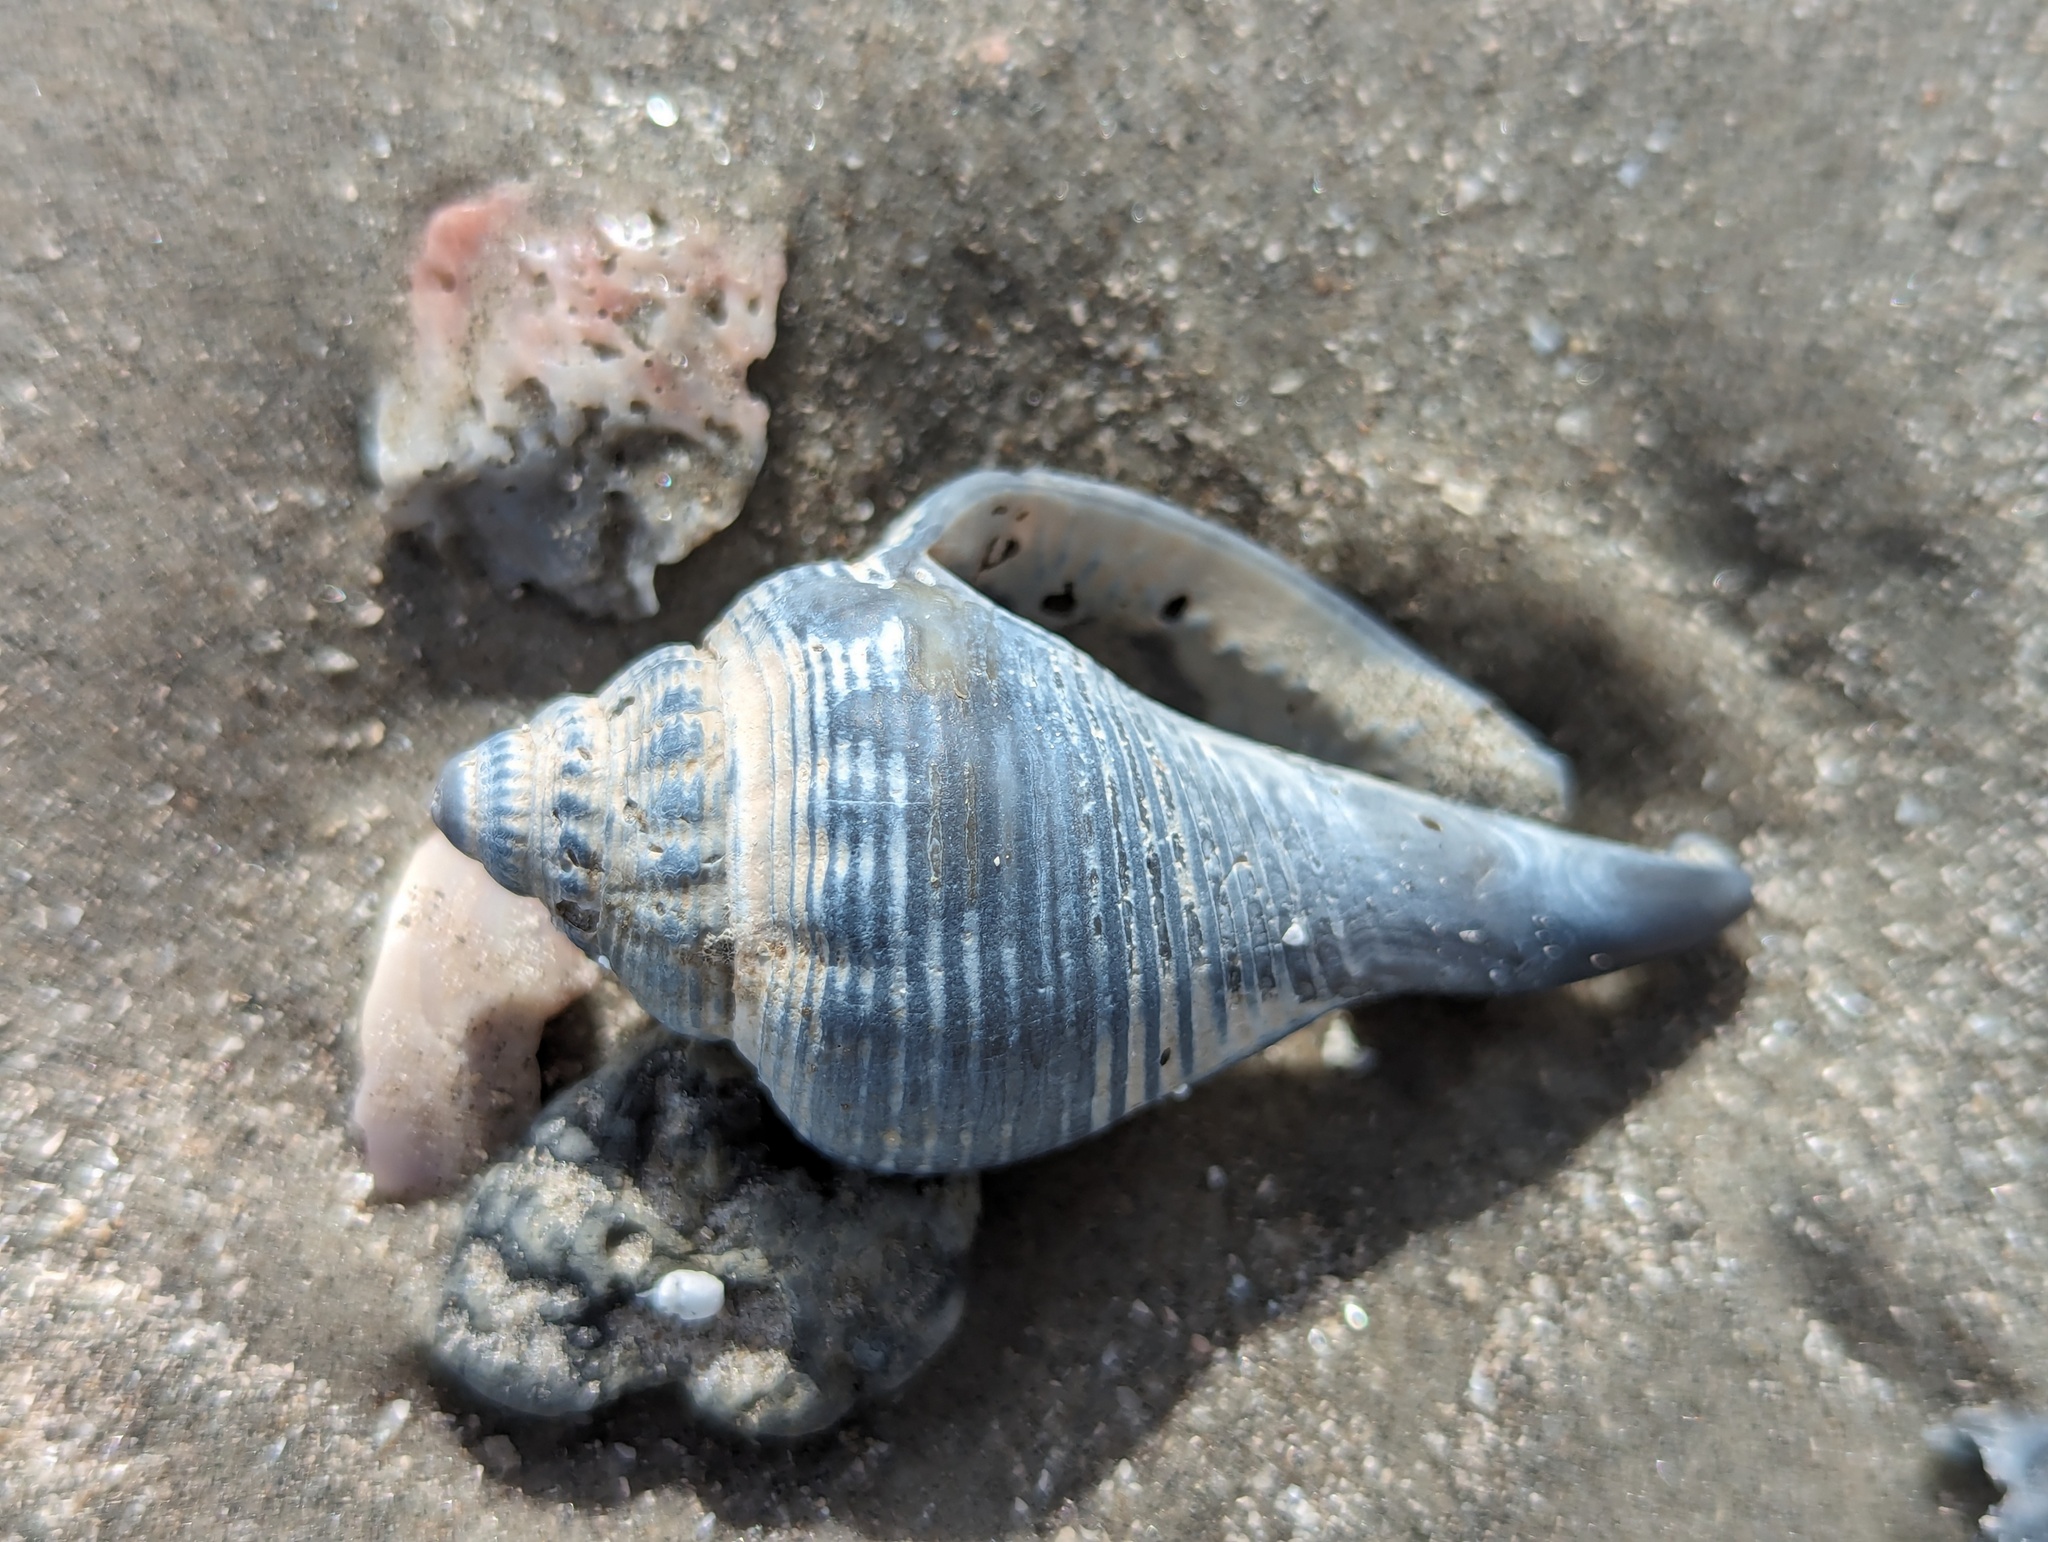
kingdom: Animalia
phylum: Mollusca
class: Gastropoda
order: Littorinimorpha
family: Strombidae
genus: Strombus
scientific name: Strombus alatus
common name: Florida fighting conch
